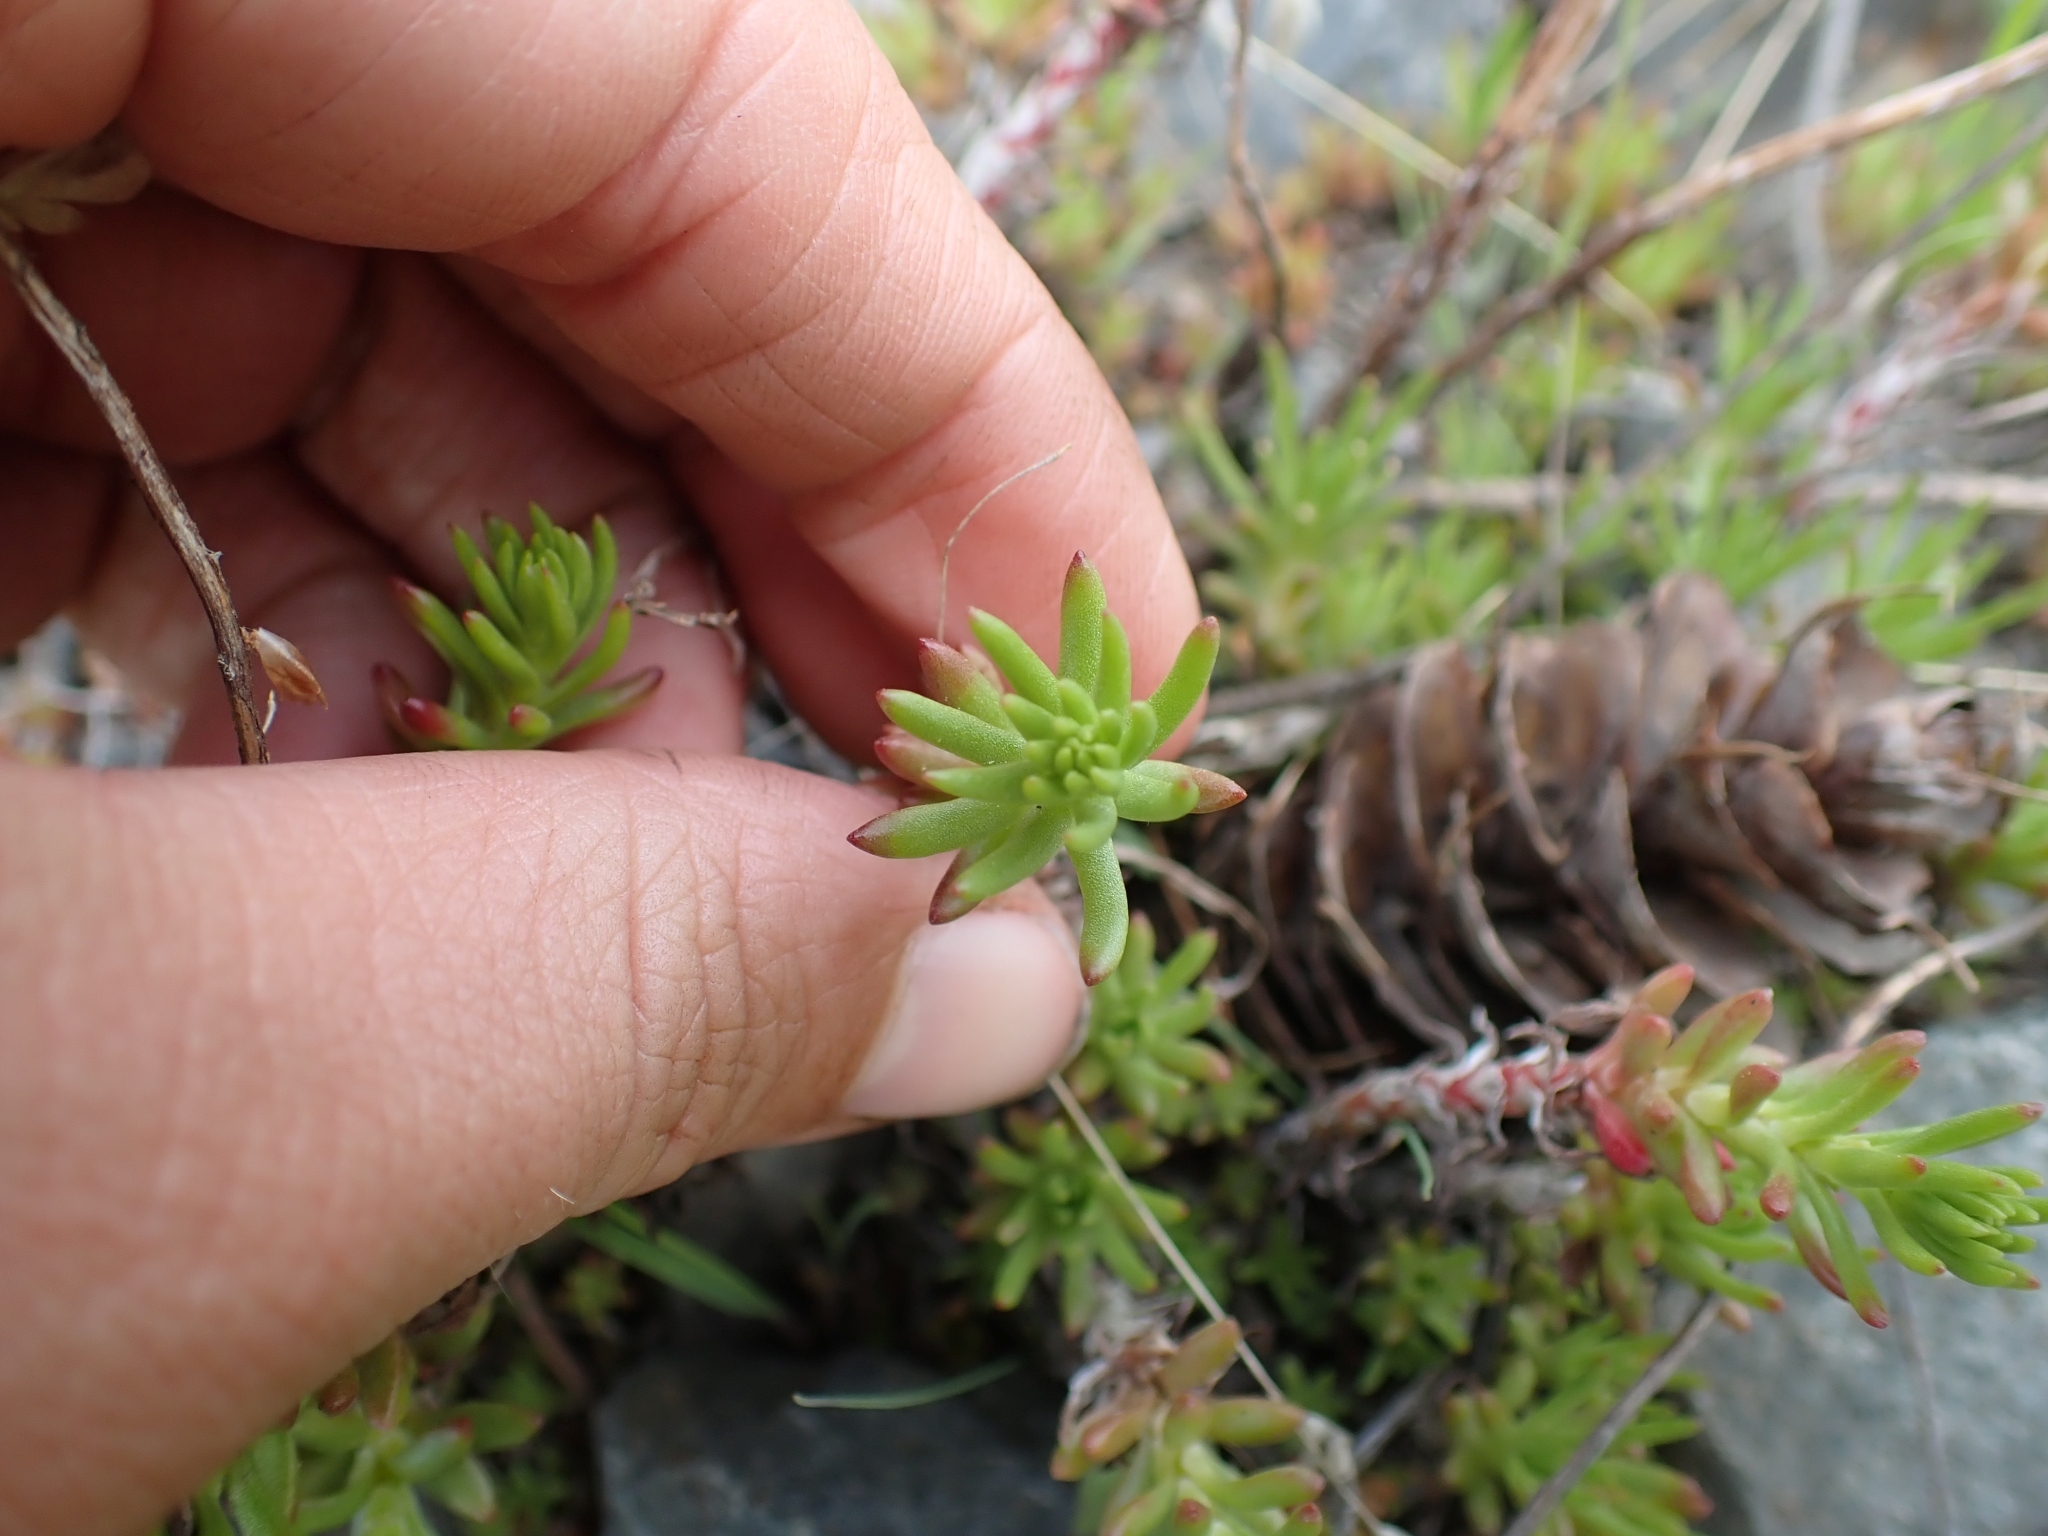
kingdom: Plantae
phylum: Tracheophyta
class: Magnoliopsida
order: Saxifragales
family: Crassulaceae
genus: Sedum
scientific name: Sedum stenopetalum
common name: Narrow-petaled stonecrop
